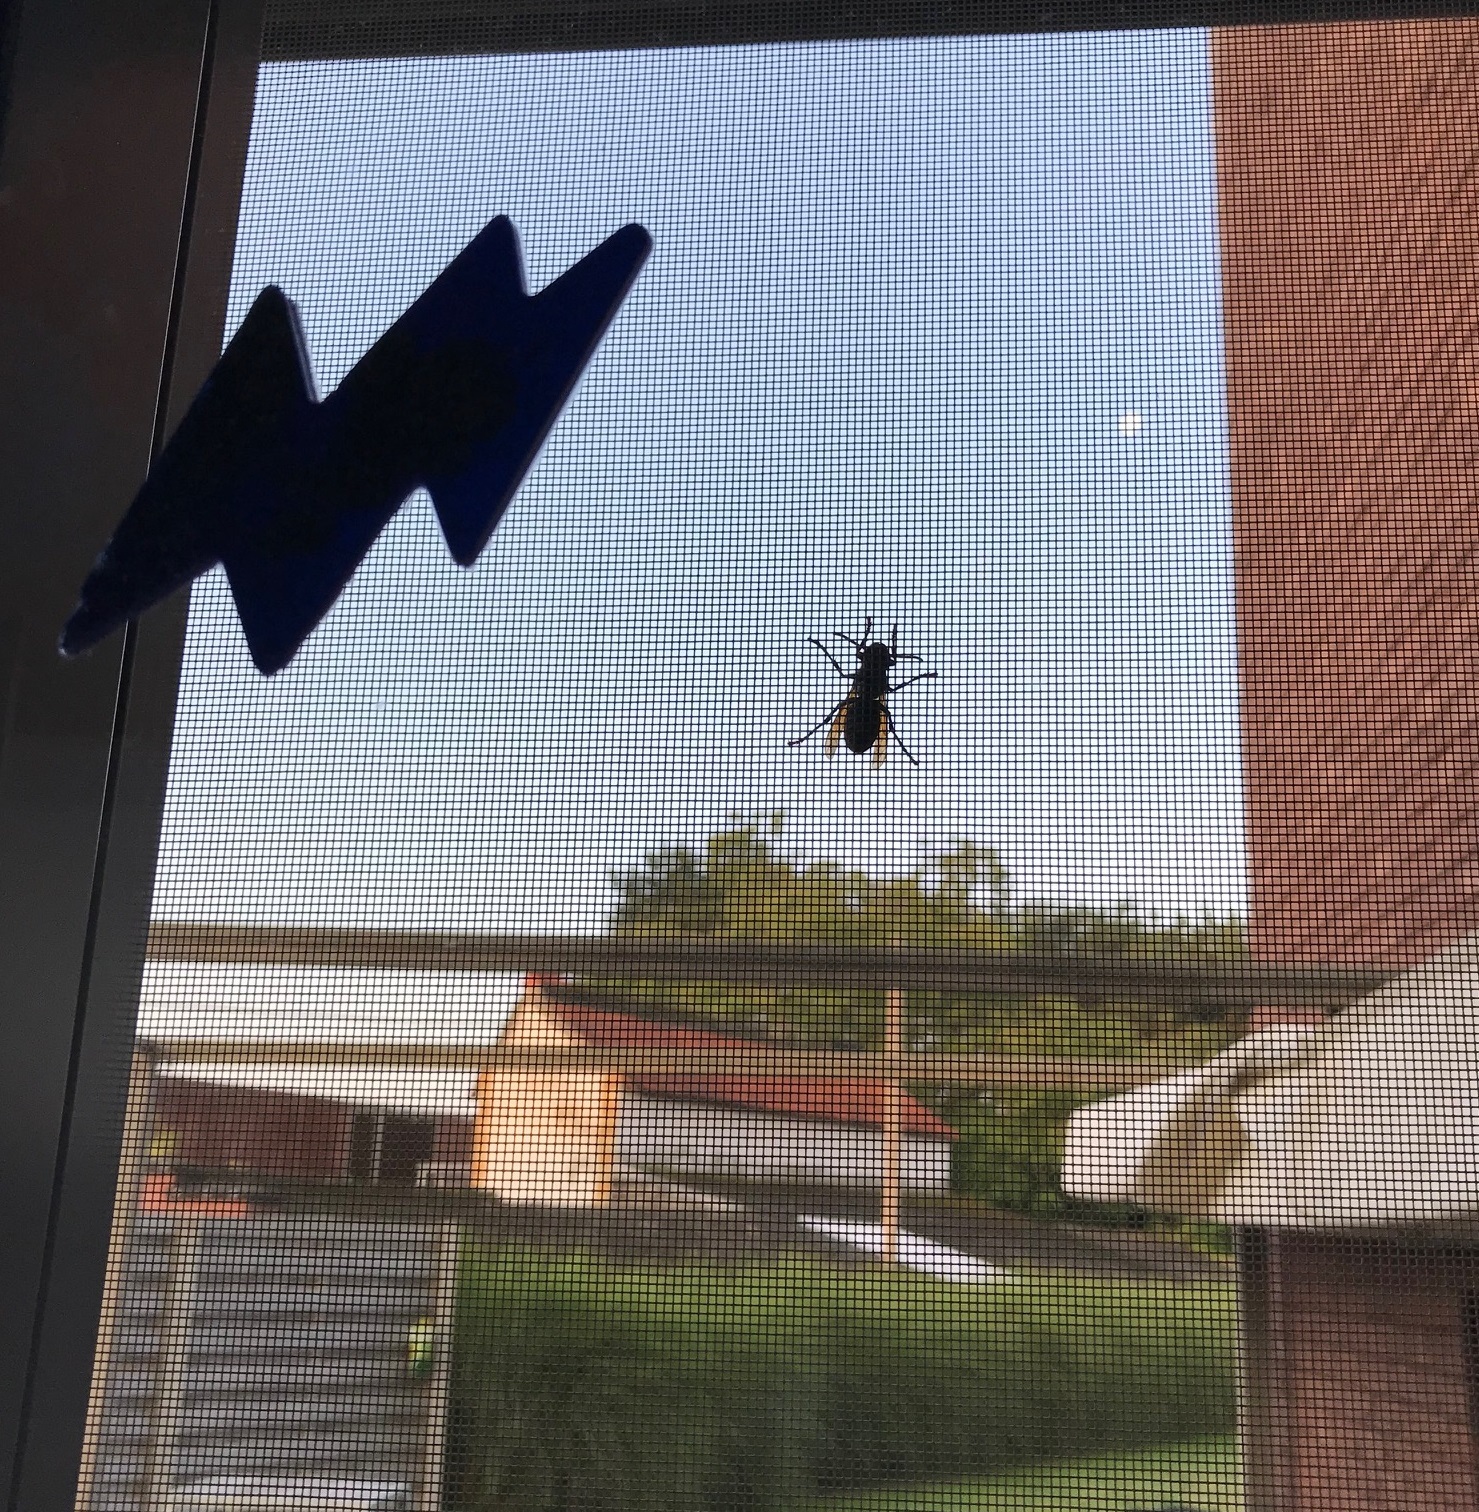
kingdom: Animalia
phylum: Arthropoda
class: Insecta
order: Hymenoptera
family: Vespidae
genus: Vespa
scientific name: Vespa crabro
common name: Hornet
